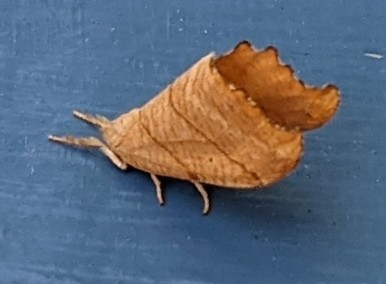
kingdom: Animalia
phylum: Arthropoda
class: Insecta
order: Lepidoptera
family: Drepanidae
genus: Falcaria
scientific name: Falcaria bilineata
